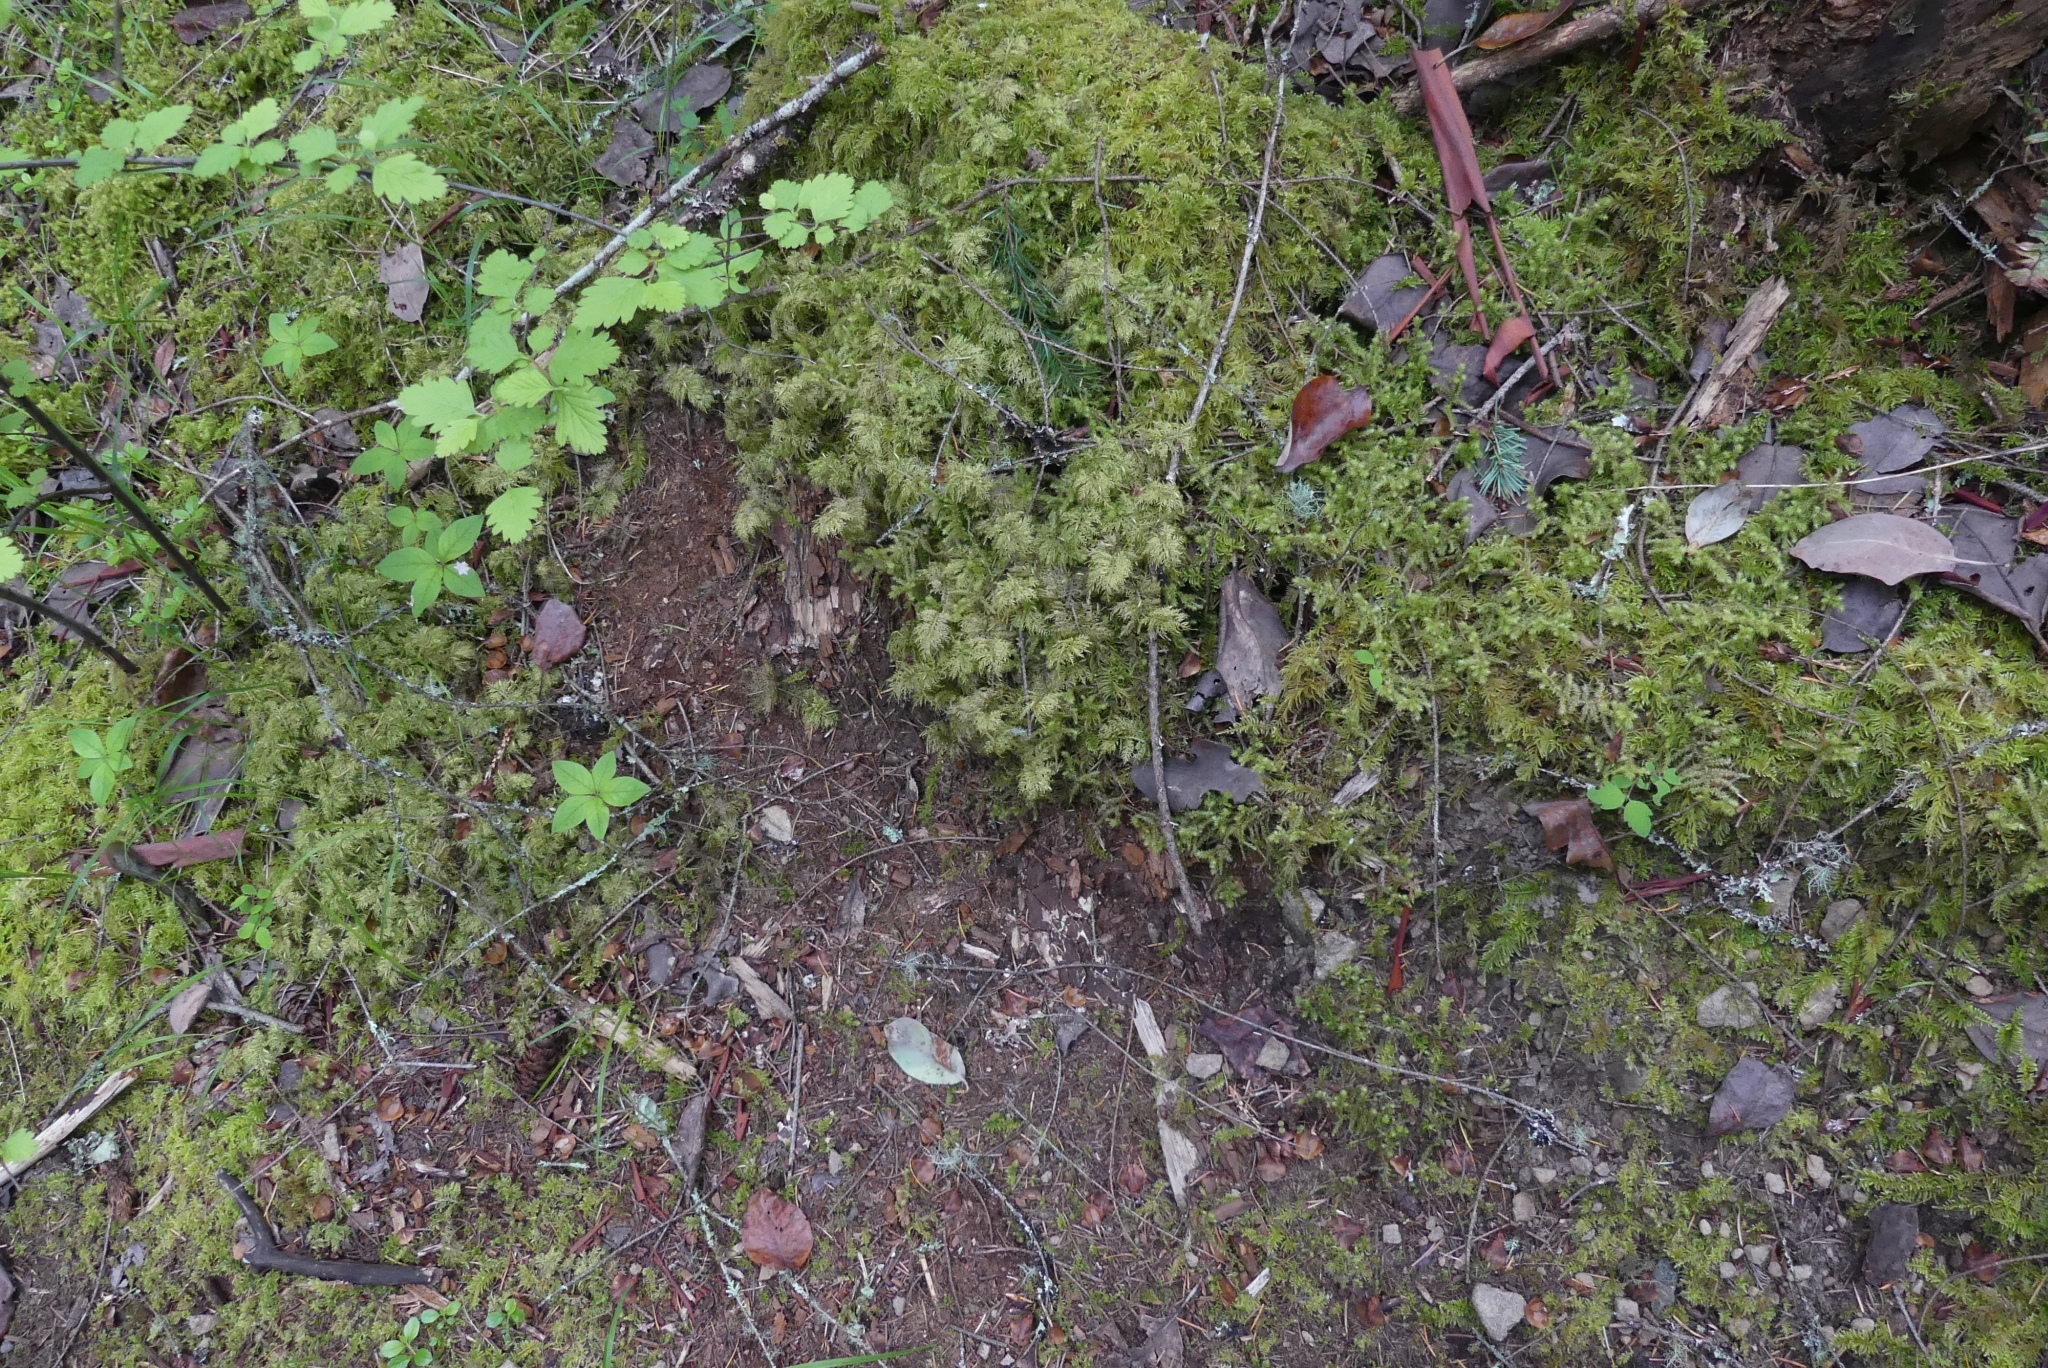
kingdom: Plantae
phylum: Bryophyta
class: Bryopsida
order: Hypnales
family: Hylocomiaceae
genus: Hylocomium
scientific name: Hylocomium splendens
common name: Stairstep moss
